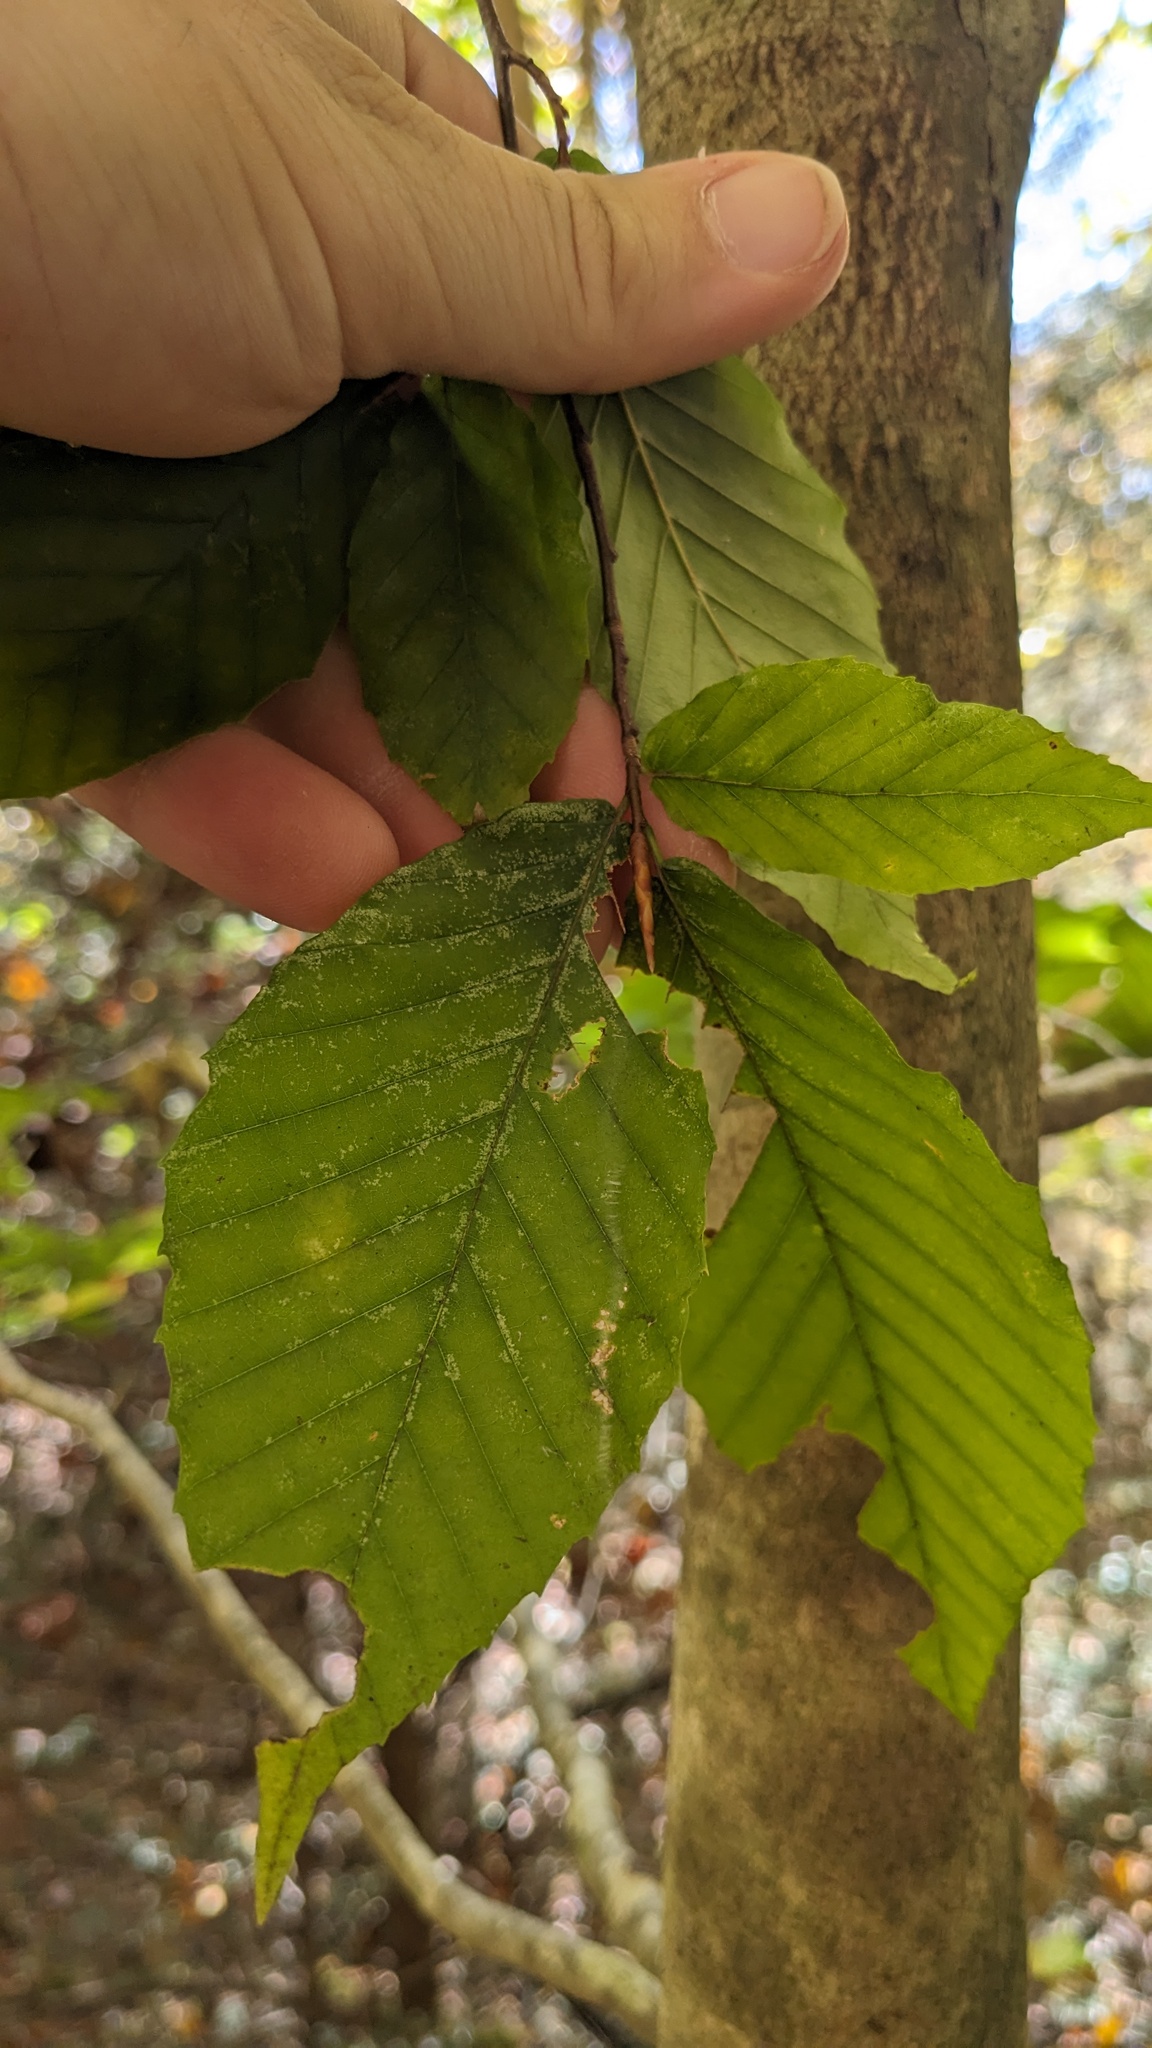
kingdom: Plantae
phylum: Tracheophyta
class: Magnoliopsida
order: Fagales
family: Fagaceae
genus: Fagus
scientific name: Fagus grandifolia
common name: American beech
